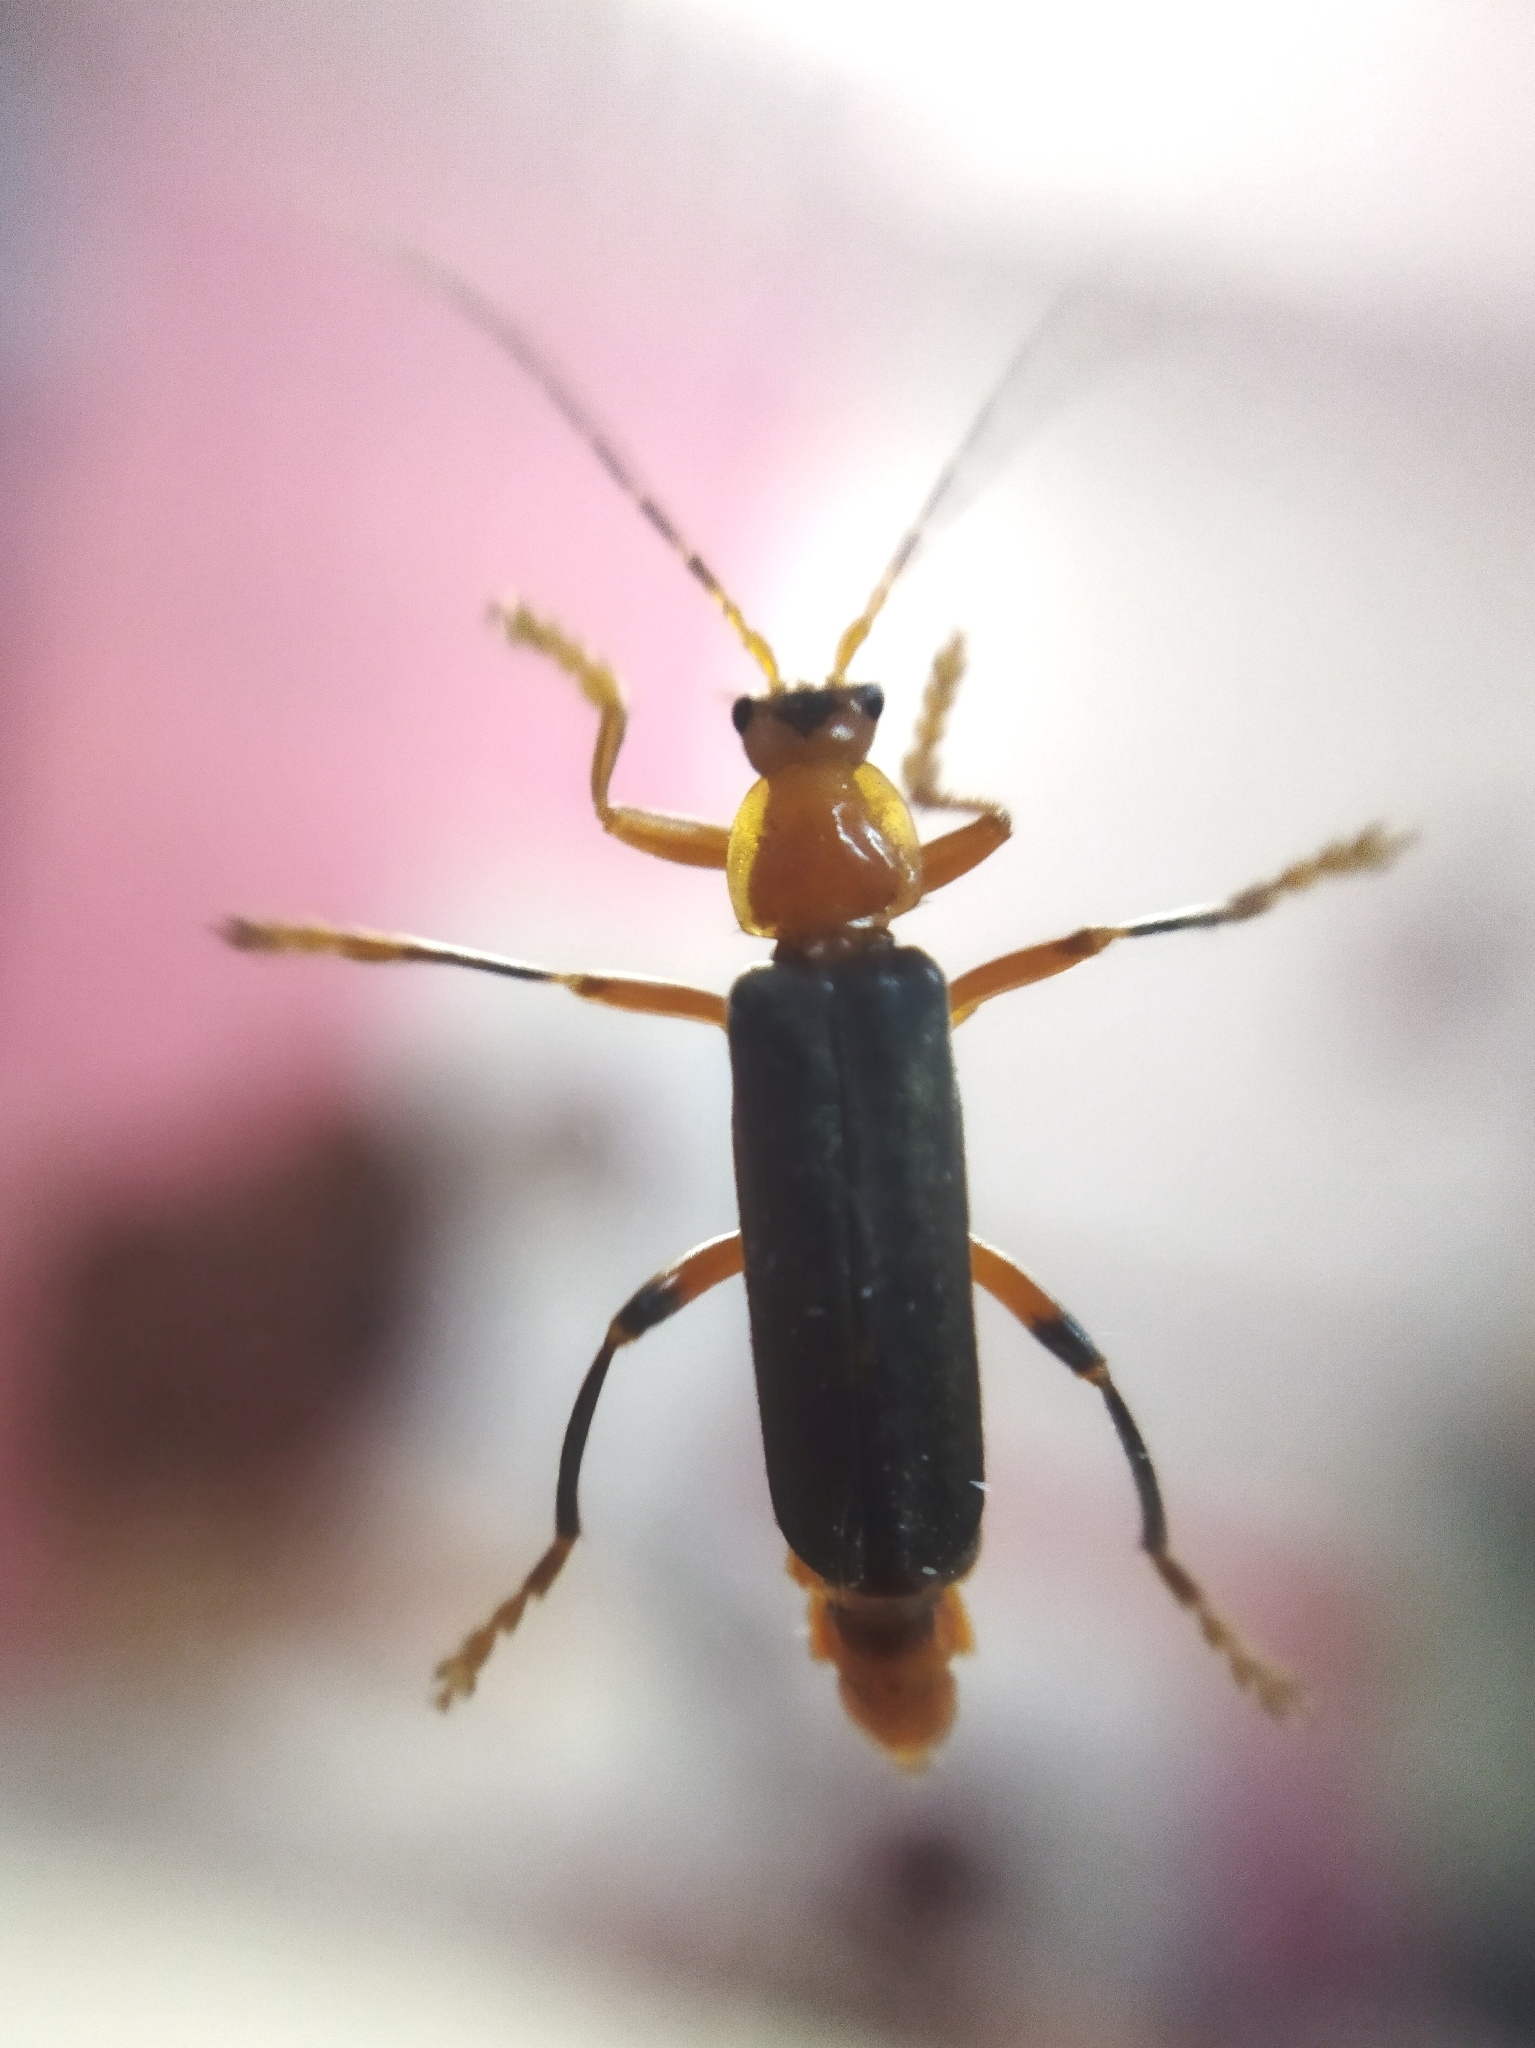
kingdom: Animalia
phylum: Arthropoda
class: Insecta
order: Coleoptera
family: Cantharidae
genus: Cantharis
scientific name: Cantharis livida
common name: Livid soldier beetle
